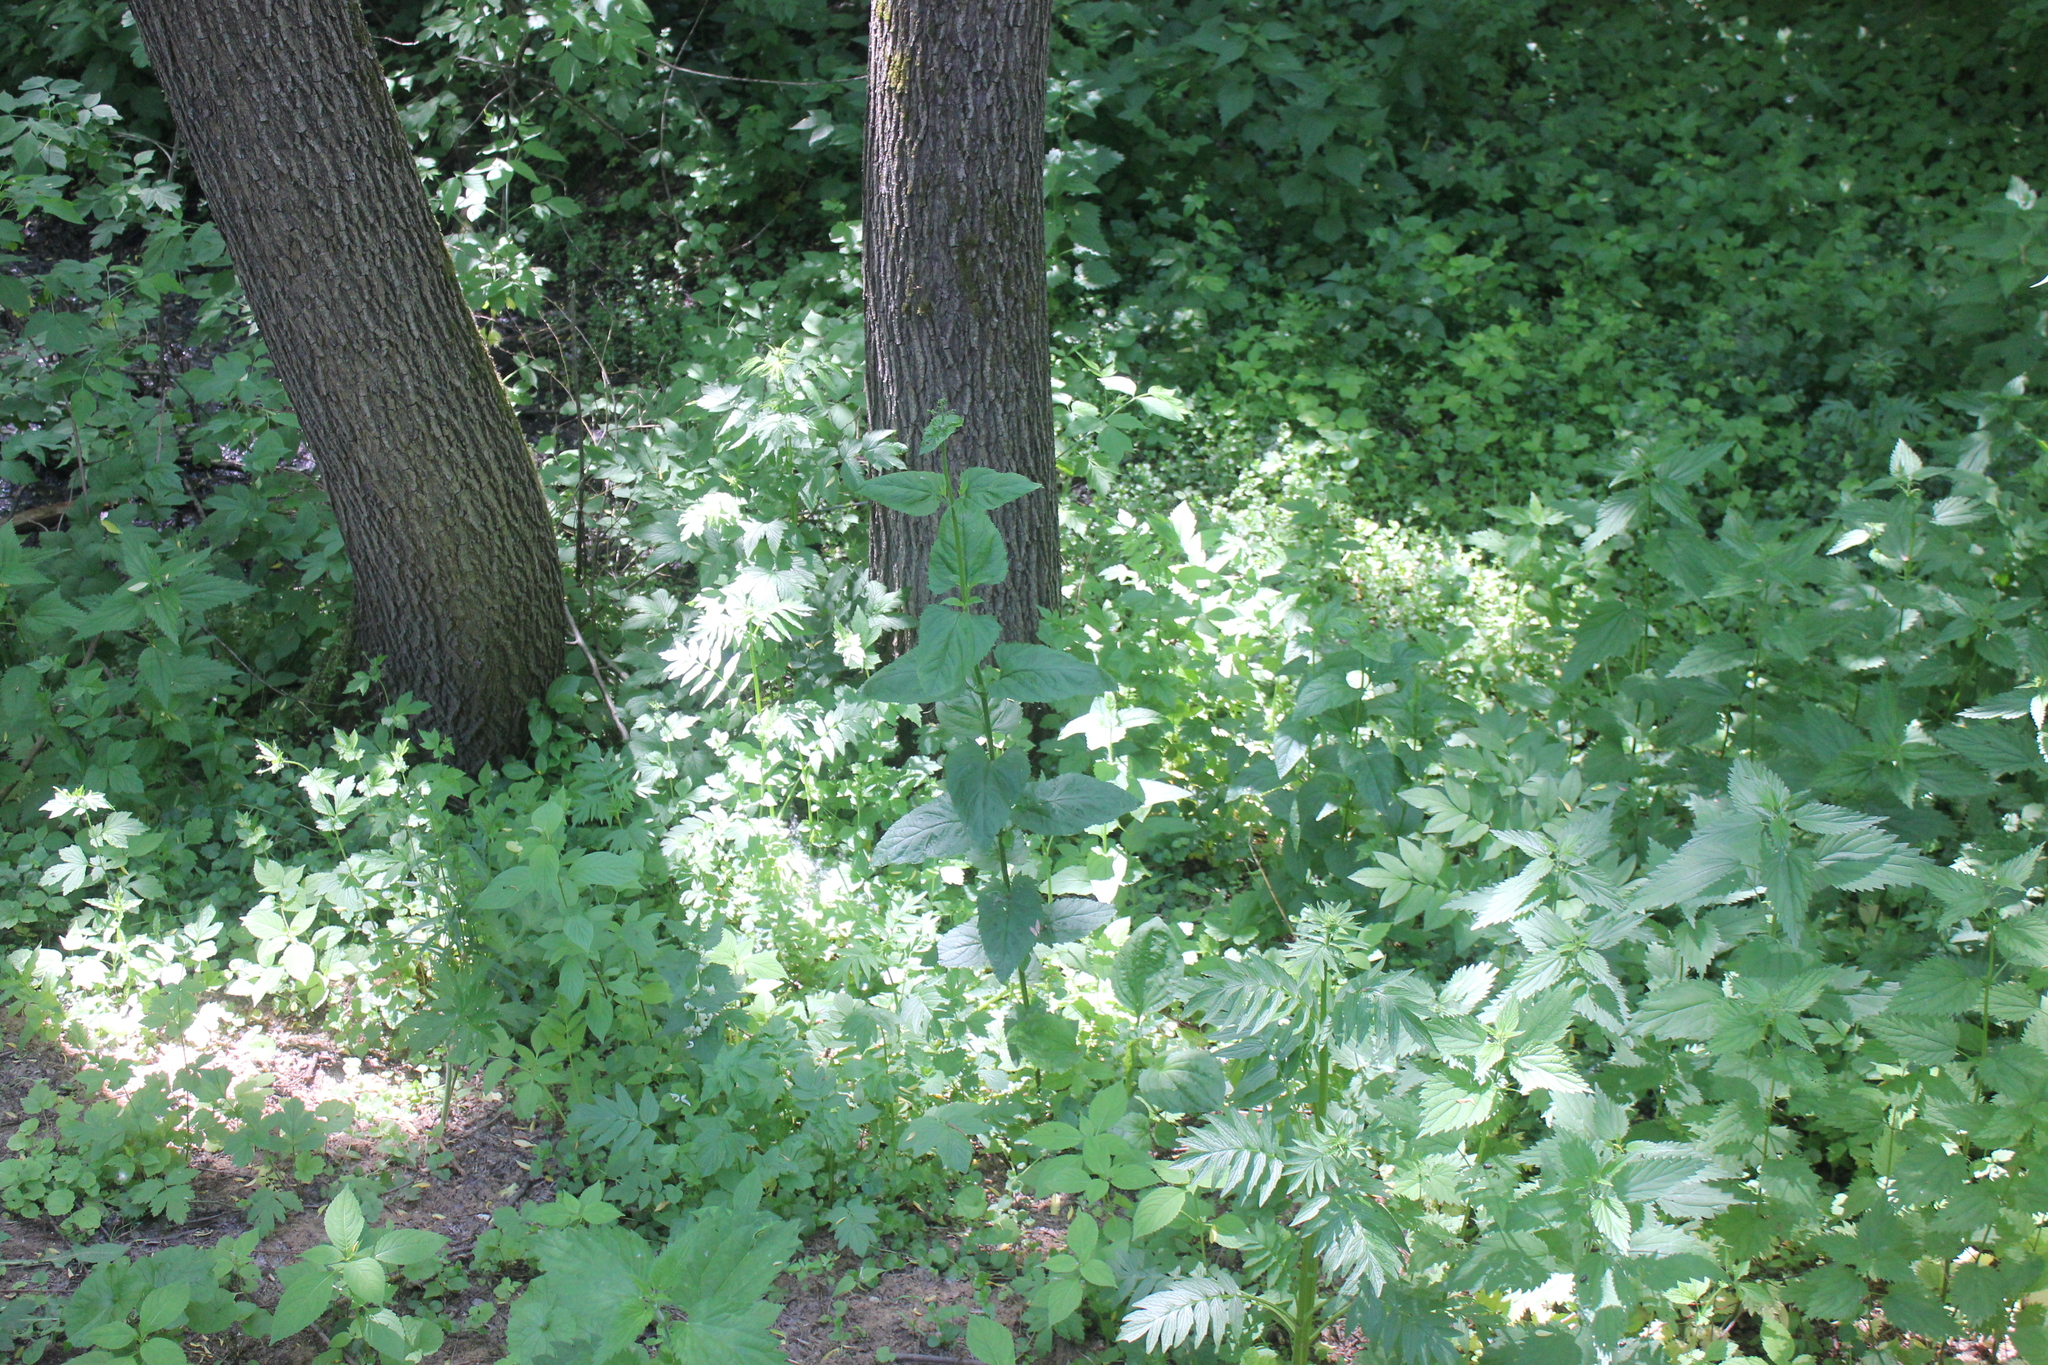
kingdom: Plantae
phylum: Tracheophyta
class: Magnoliopsida
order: Lamiales
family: Scrophulariaceae
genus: Scrophularia
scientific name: Scrophularia nodosa
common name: Common figwort
